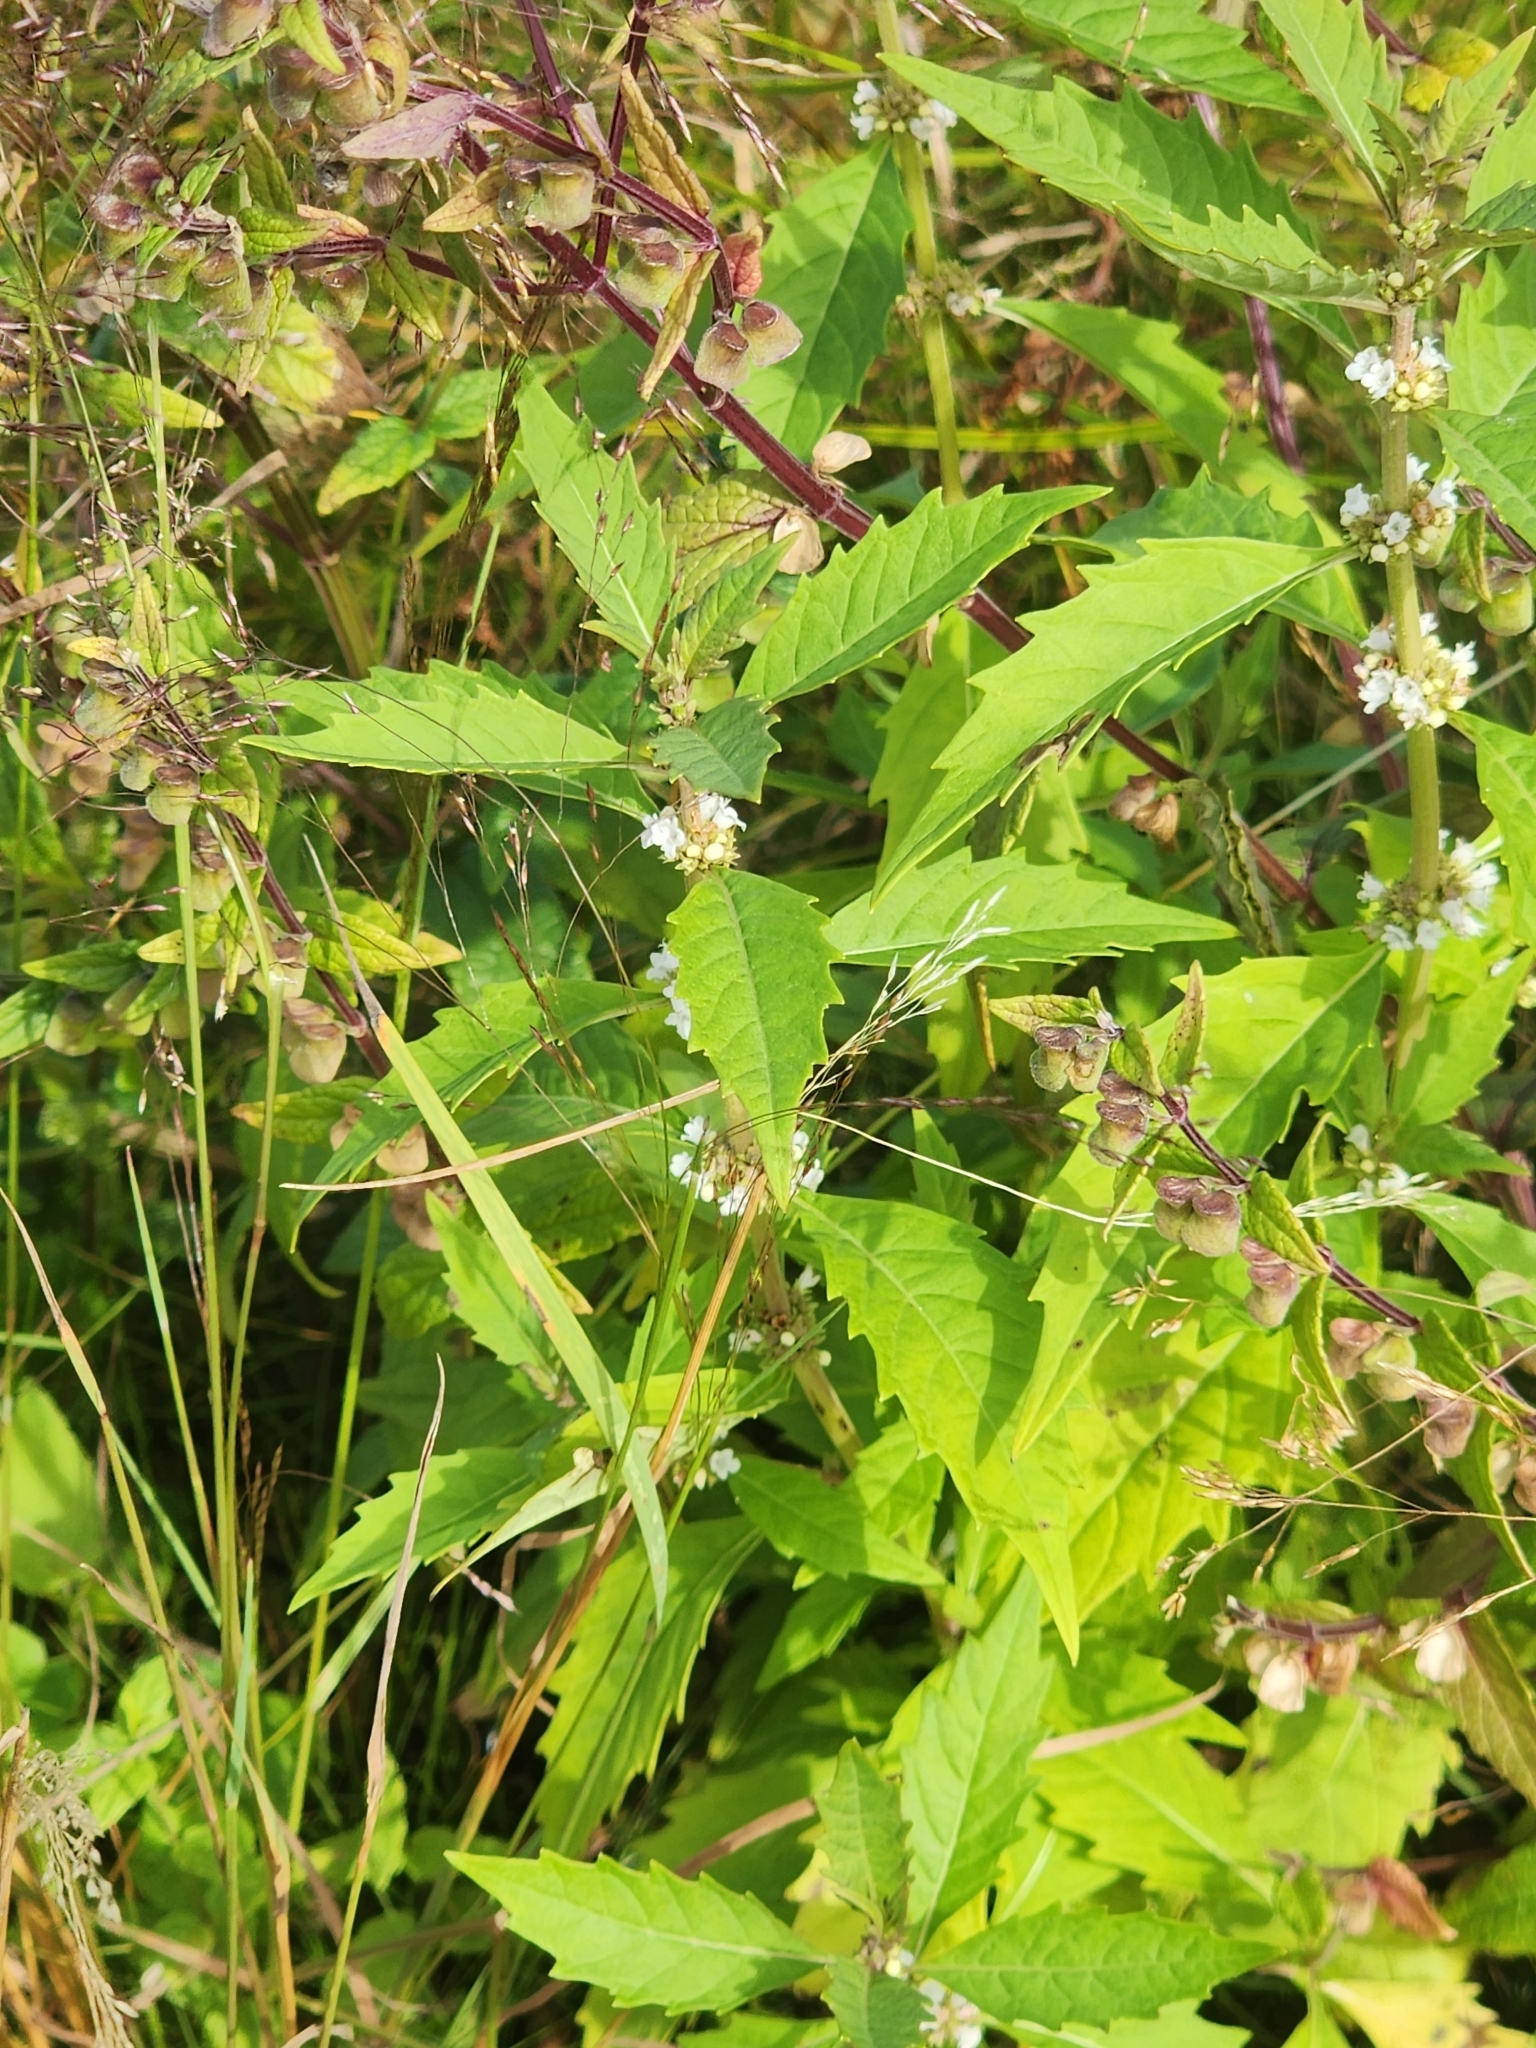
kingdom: Plantae
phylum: Tracheophyta
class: Magnoliopsida
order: Lamiales
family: Lamiaceae
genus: Lycopus
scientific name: Lycopus uniflorus
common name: Northern bugleweed
